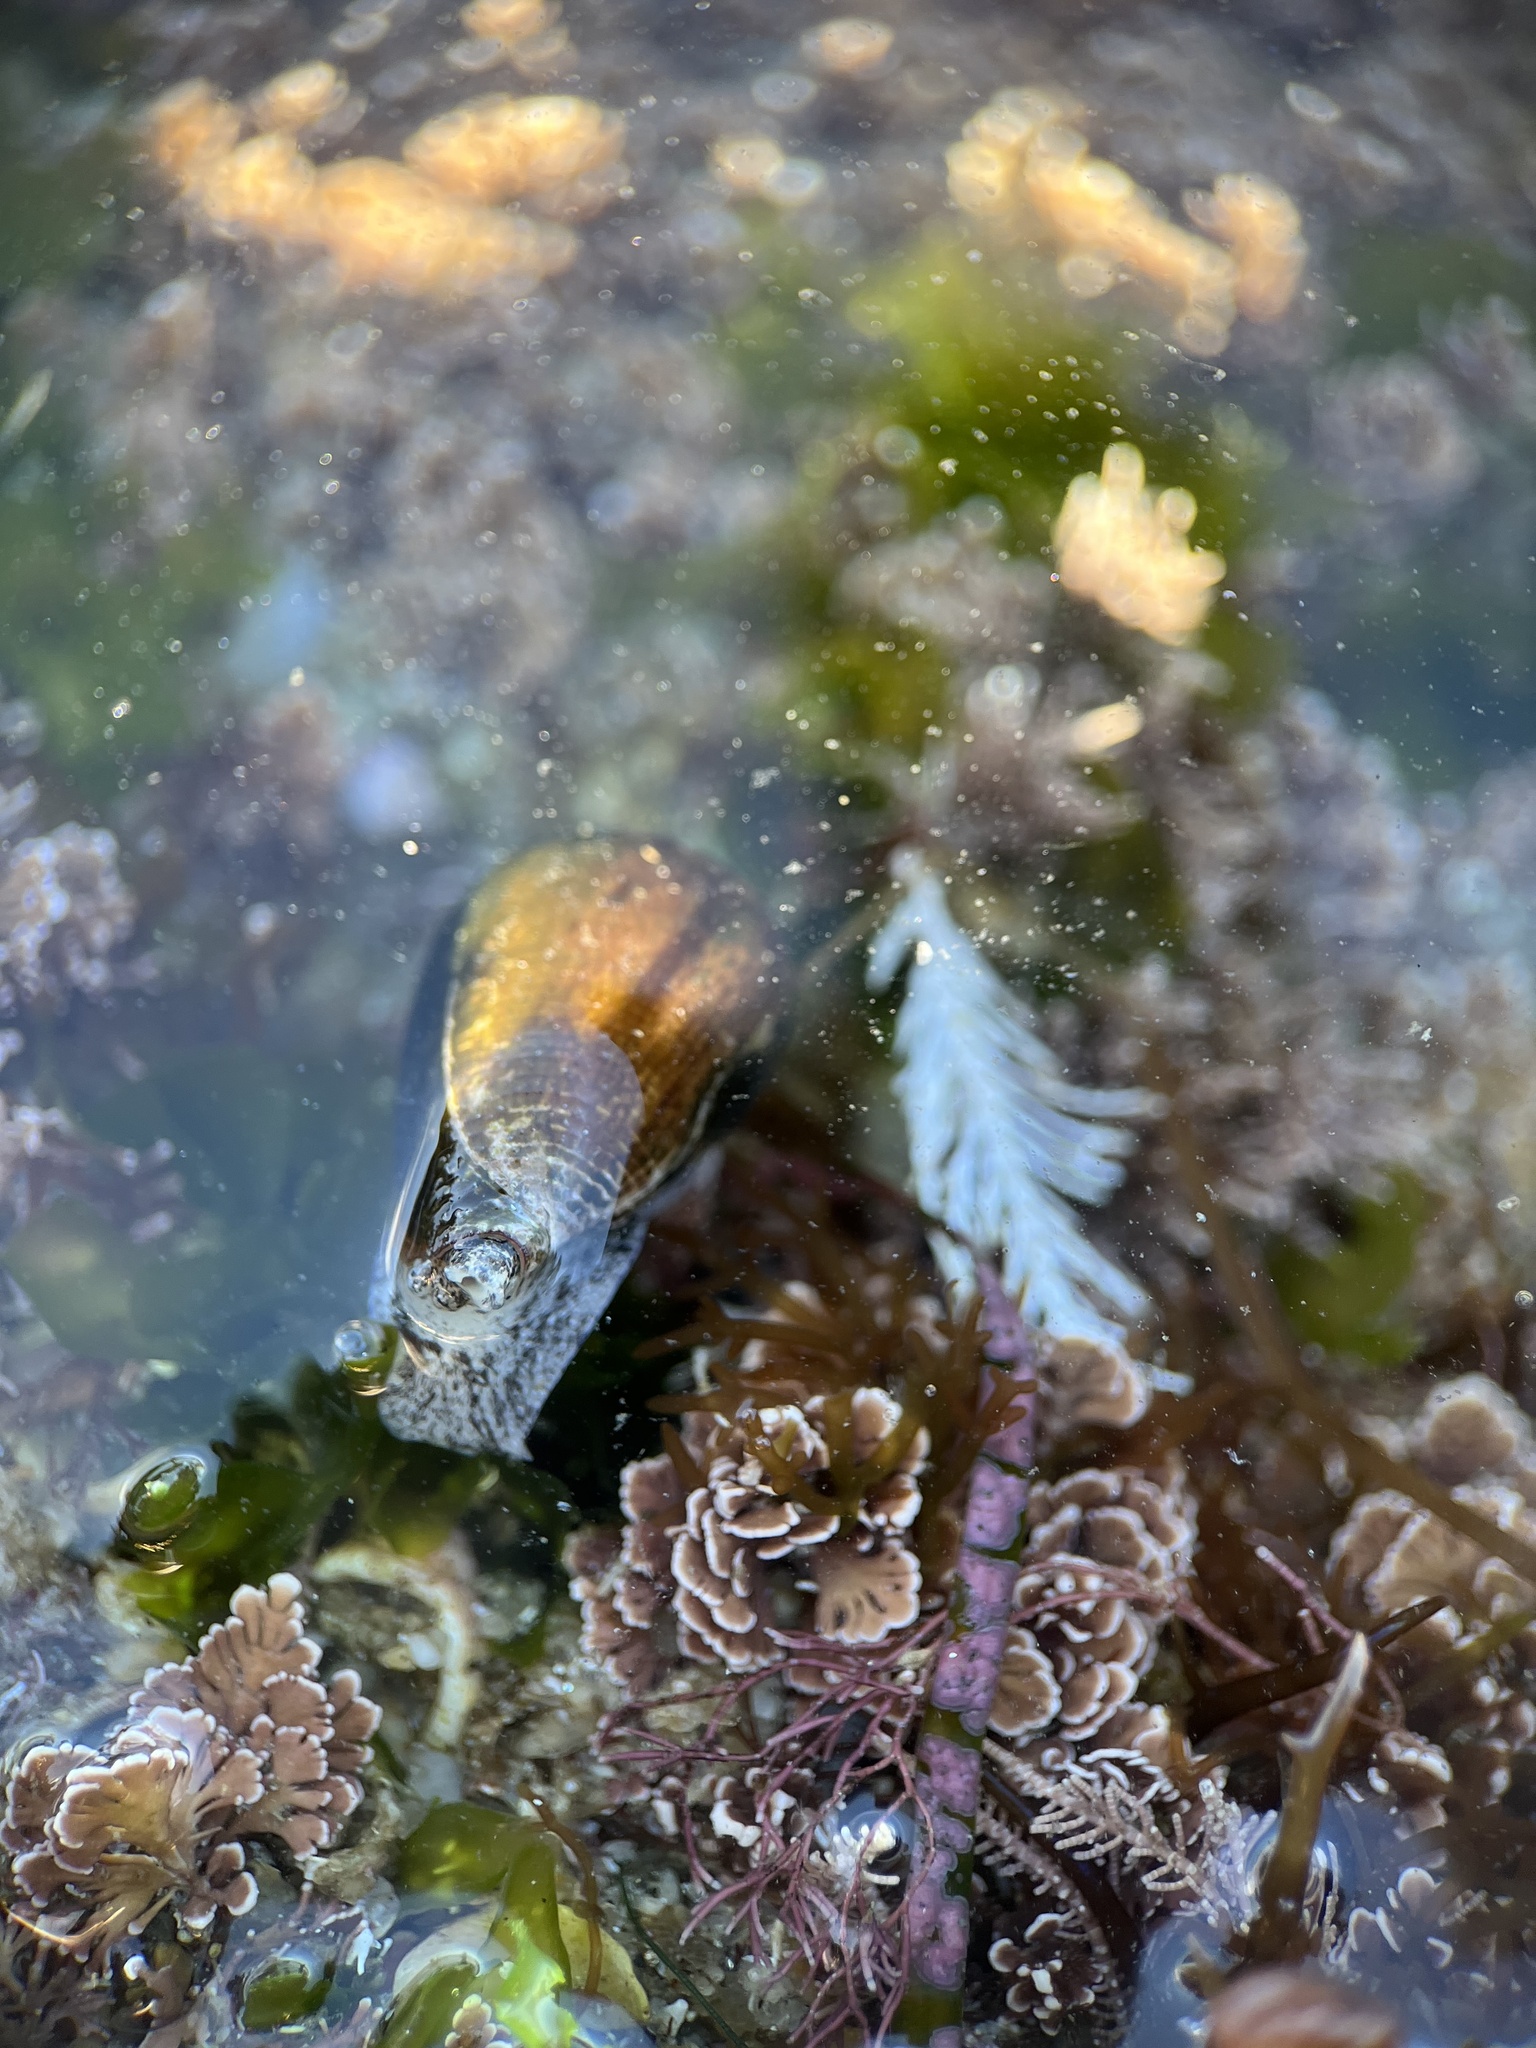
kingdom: Animalia
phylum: Mollusca
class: Gastropoda
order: Neogastropoda
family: Conidae
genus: Californiconus
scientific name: Californiconus californicus
